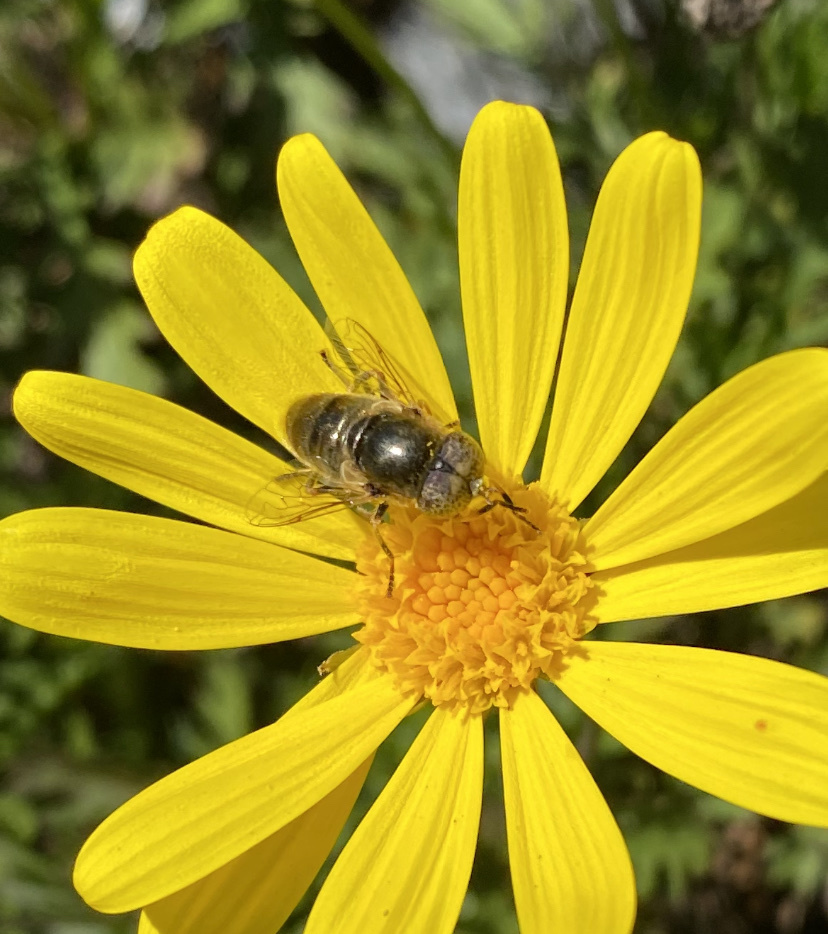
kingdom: Animalia
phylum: Arthropoda
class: Insecta
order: Diptera
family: Syrphidae
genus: Eristalinus
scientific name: Eristalinus aeneus
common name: Syrphid fly
